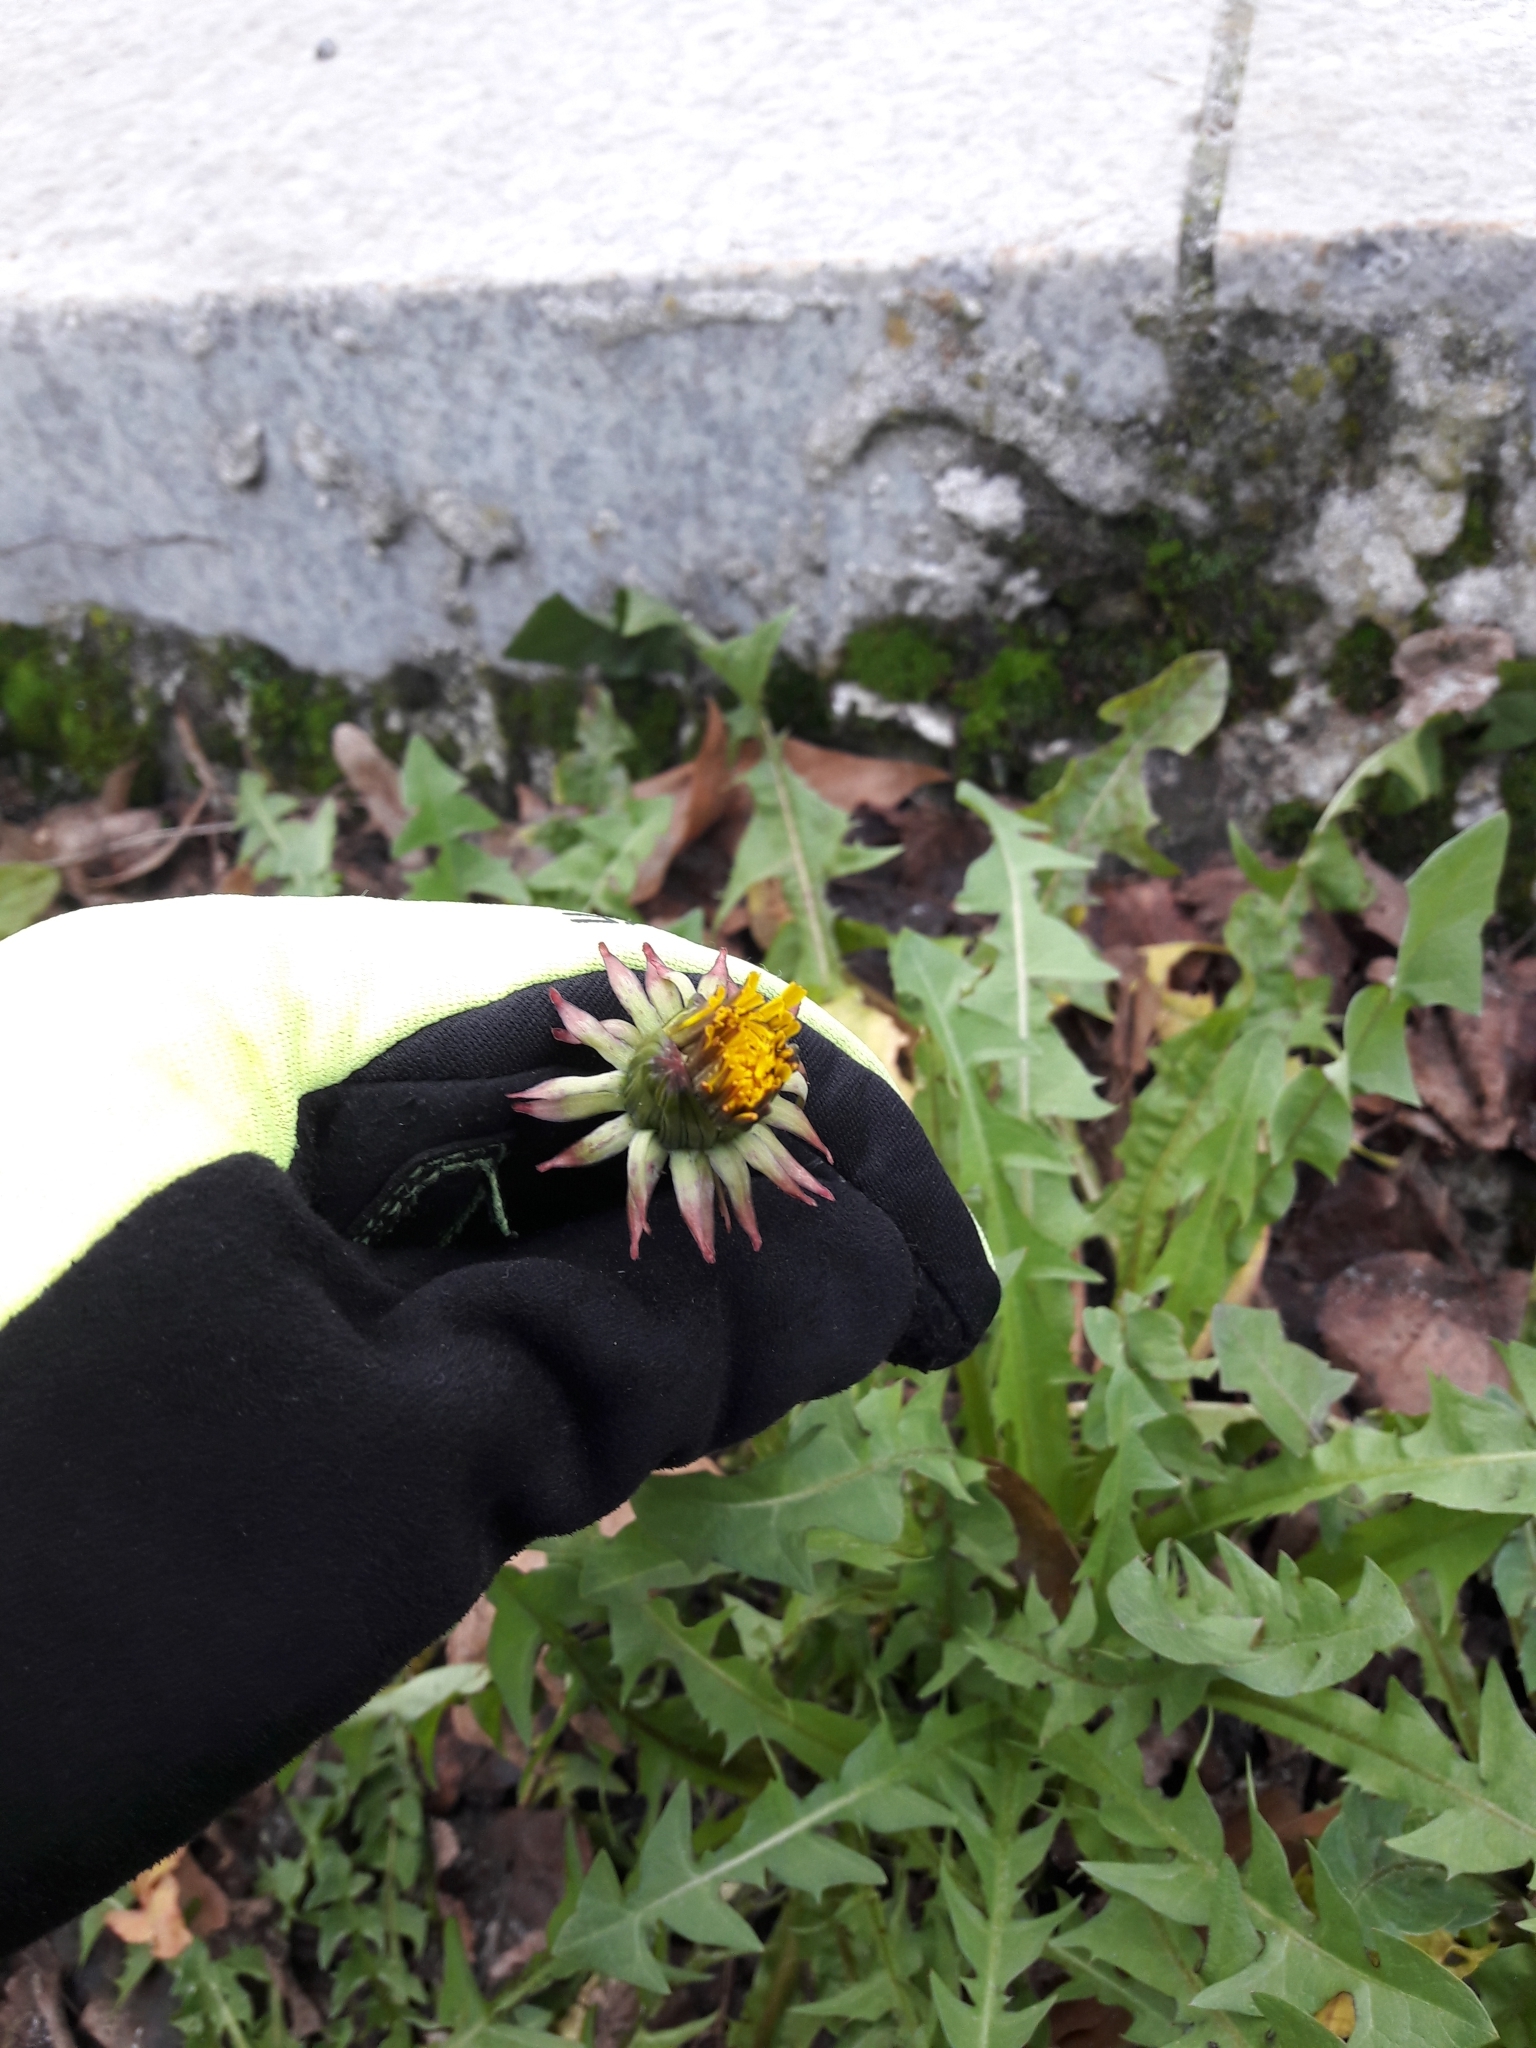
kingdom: Plantae
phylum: Tracheophyta
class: Magnoliopsida
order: Asterales
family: Asteraceae
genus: Taraxacum
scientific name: Taraxacum officinale
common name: Common dandelion
